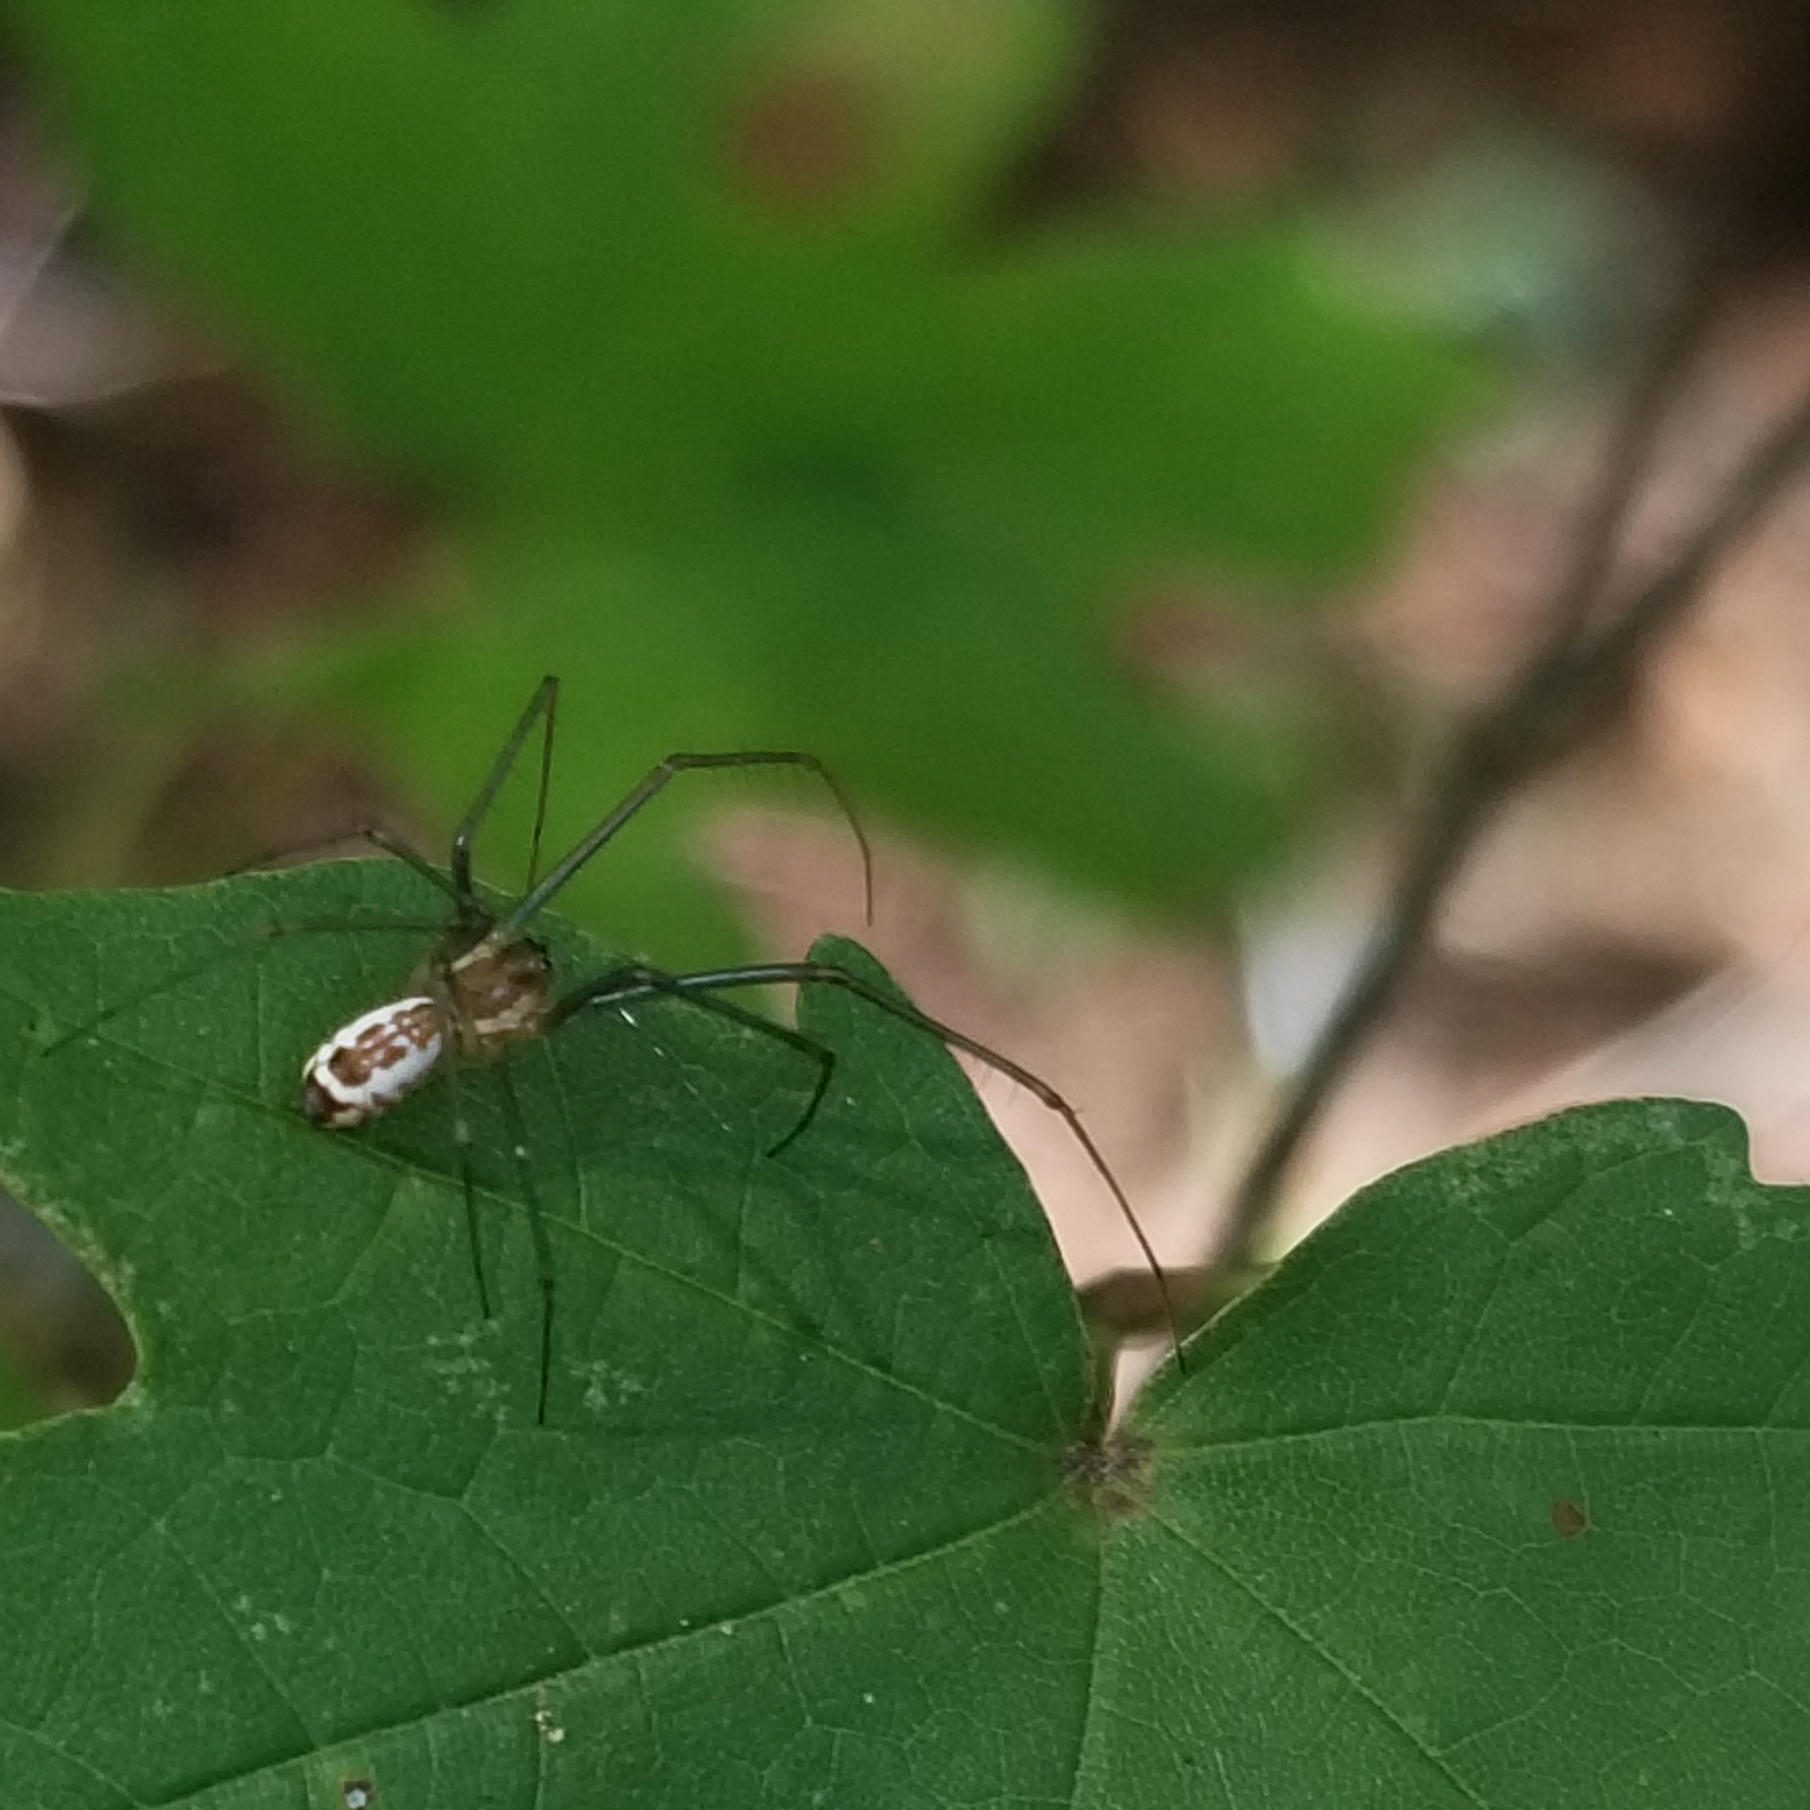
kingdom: Animalia
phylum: Arthropoda
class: Arachnida
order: Araneae
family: Linyphiidae
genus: Neriene
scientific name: Neriene radiata
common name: Filmy dome spider
